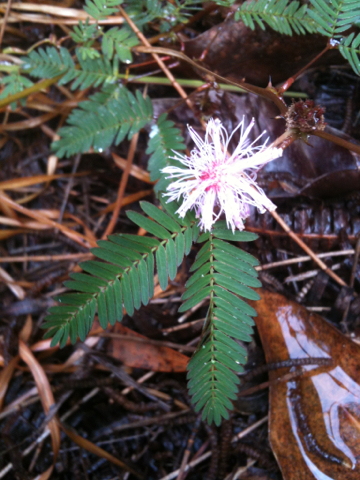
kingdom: Plantae
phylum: Tracheophyta
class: Magnoliopsida
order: Fabales
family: Fabaceae
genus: Mimosa
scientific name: Mimosa pudica
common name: Sensitive plant
